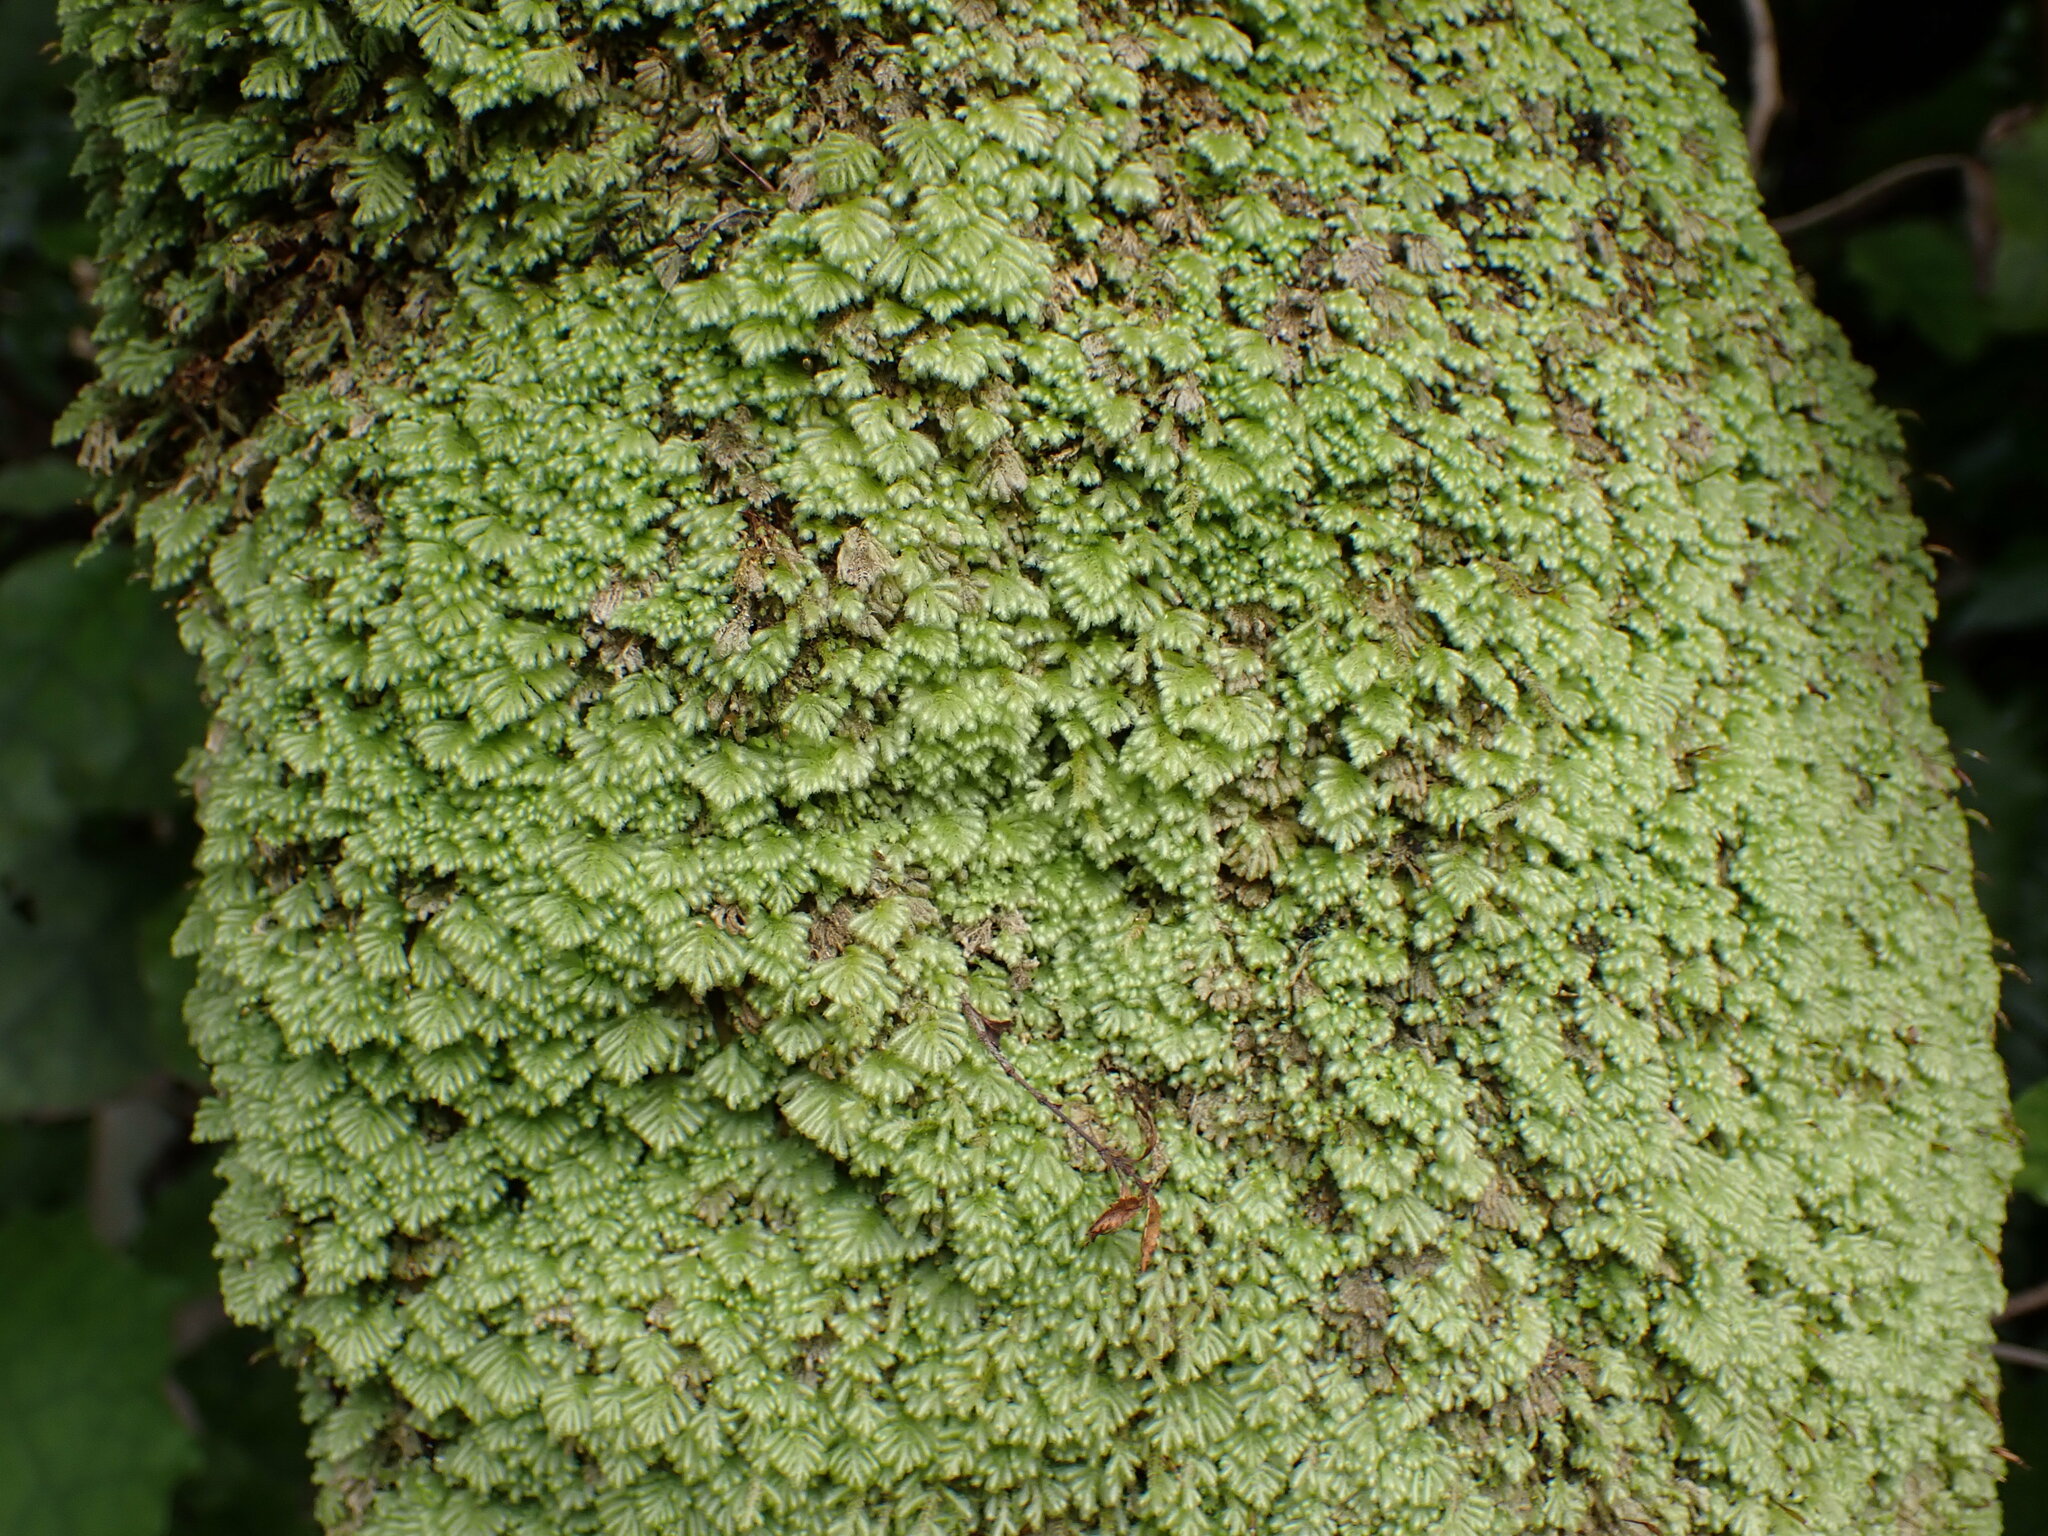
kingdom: Plantae
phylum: Bryophyta
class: Bryopsida
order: Hypopterygiales
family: Hypopterygiaceae
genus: Catharomnion
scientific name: Catharomnion ciliatum
